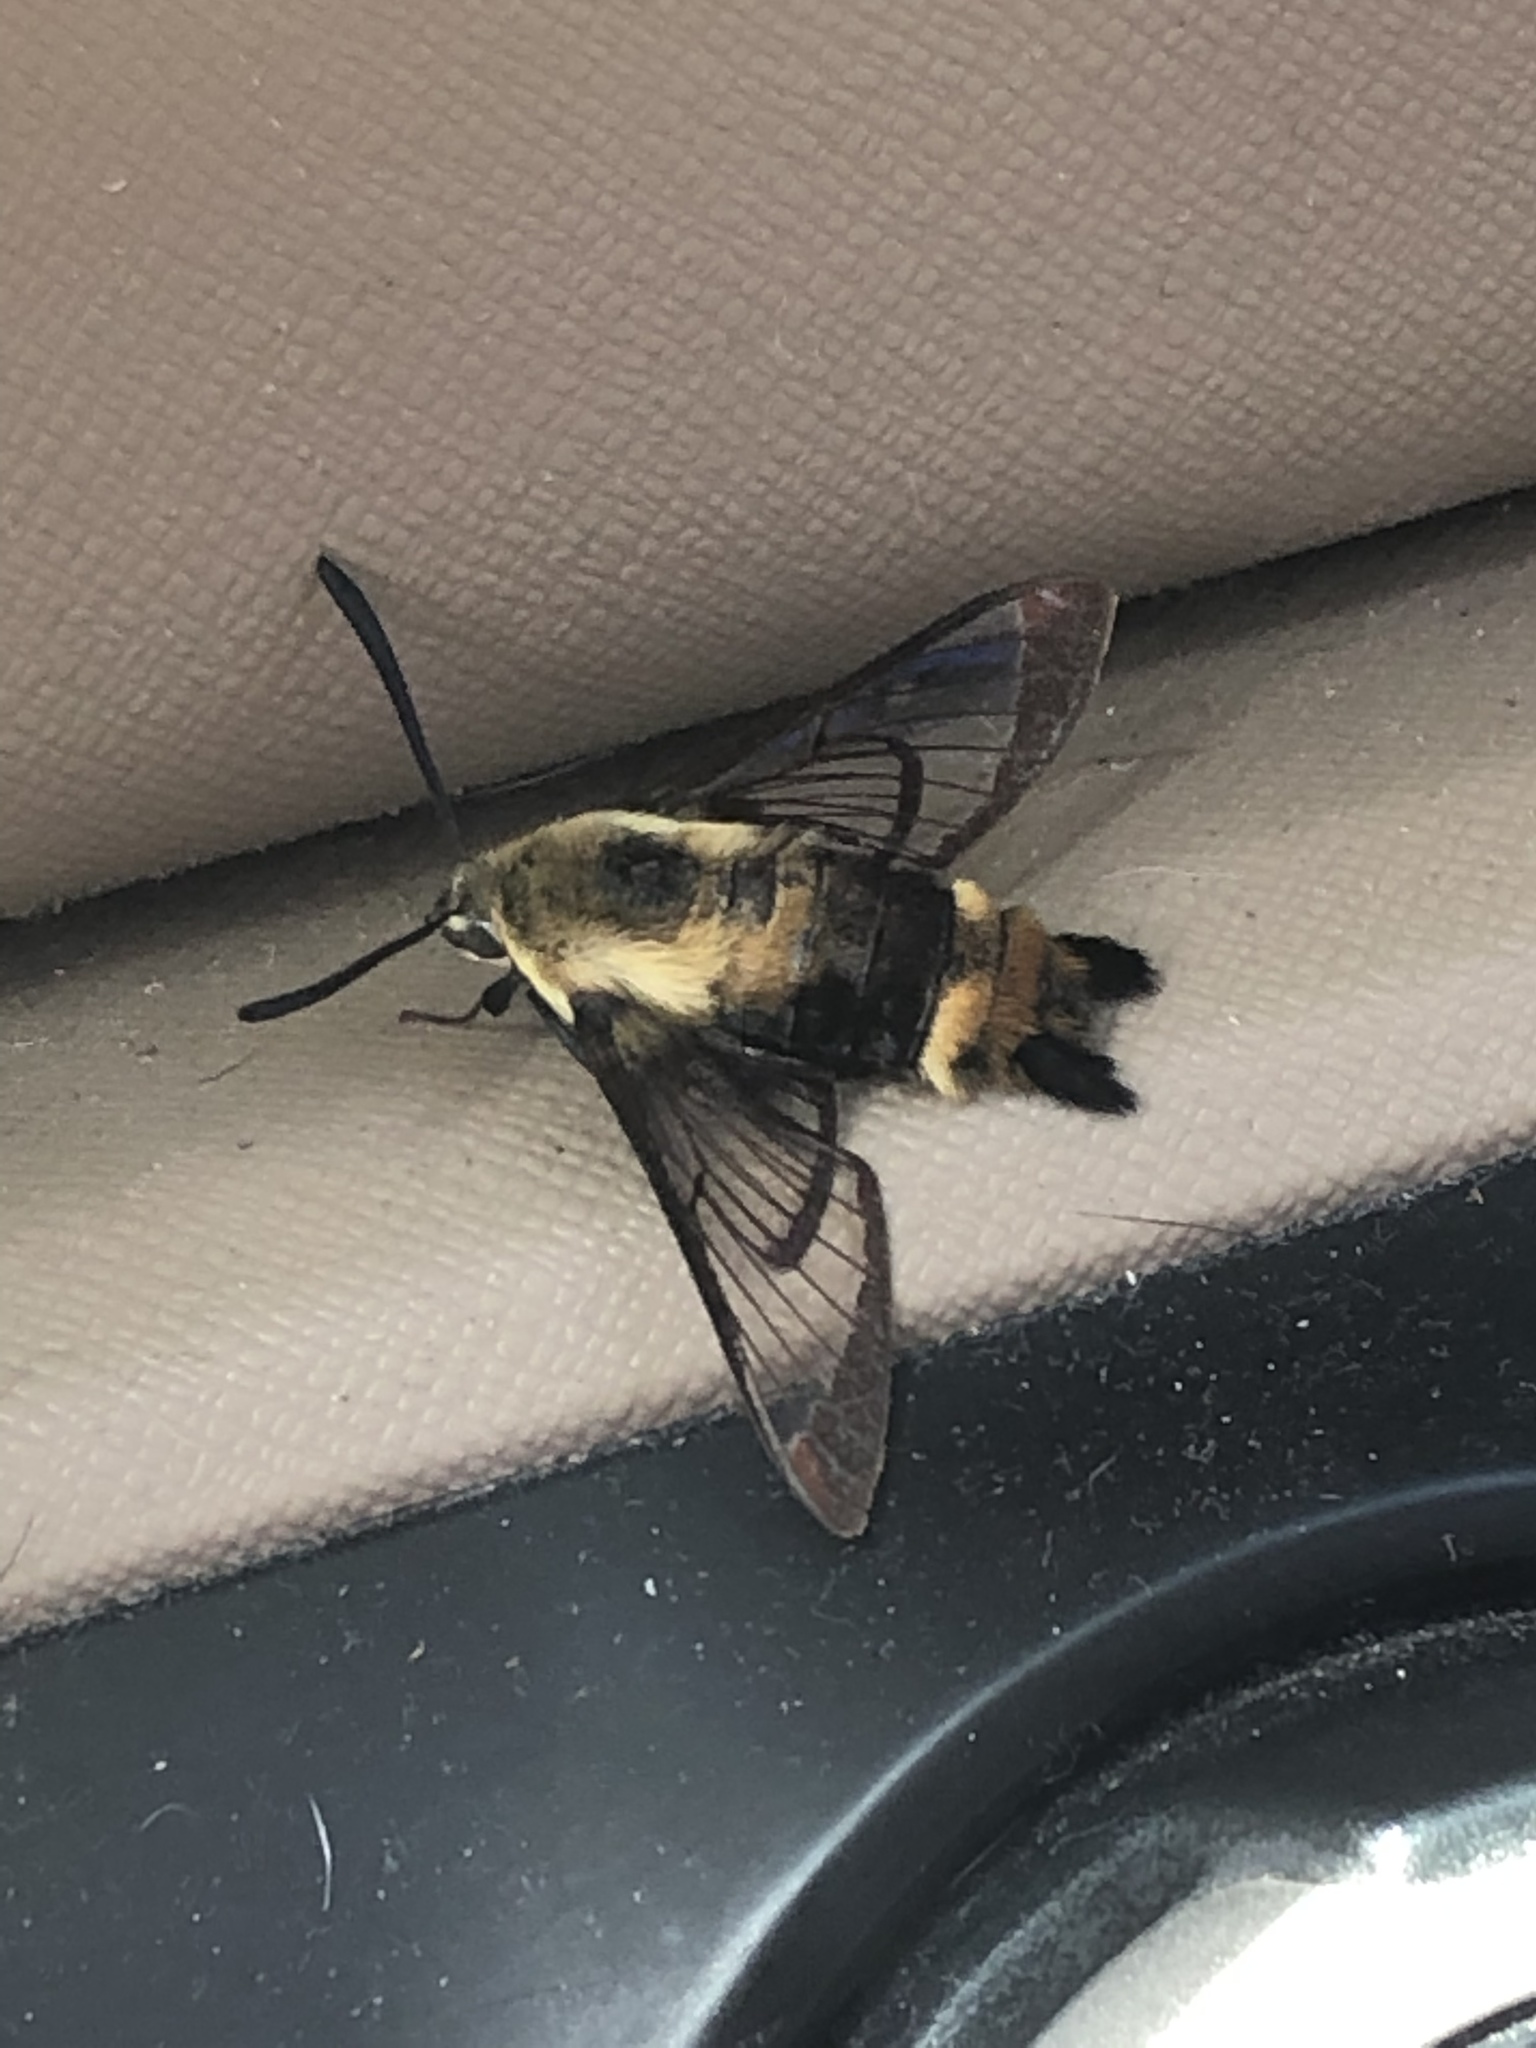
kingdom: Animalia
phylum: Arthropoda
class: Insecta
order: Lepidoptera
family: Sphingidae
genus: Hemaris
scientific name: Hemaris diffinis
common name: Bumblebee moth
